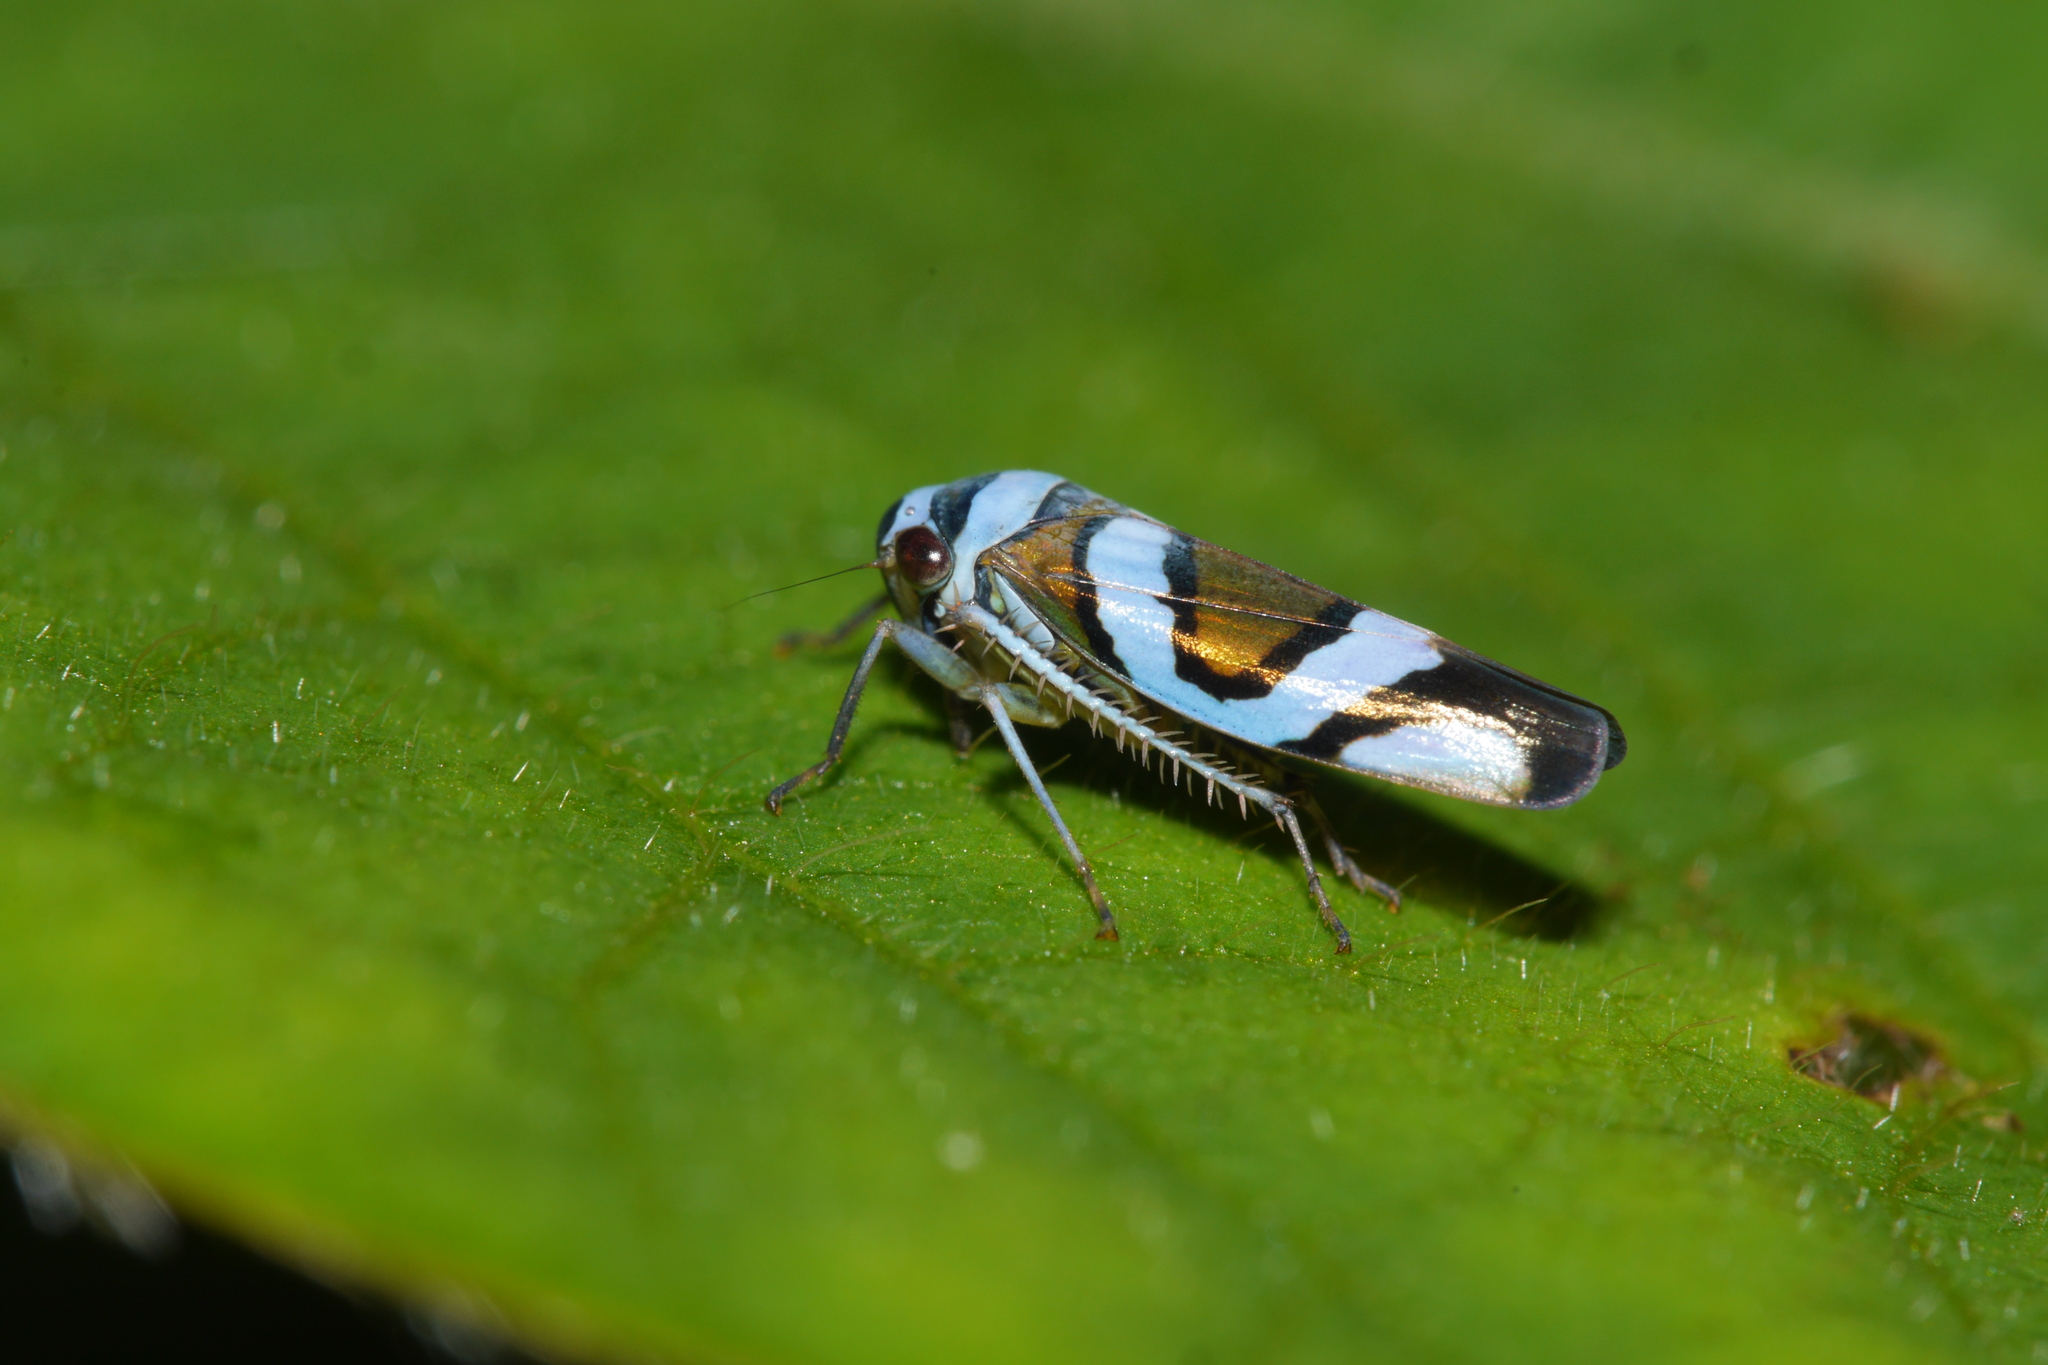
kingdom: Animalia
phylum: Arthropoda
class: Insecta
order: Hemiptera
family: Cicadellidae
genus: Macugonalia
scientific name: Macugonalia moesta
